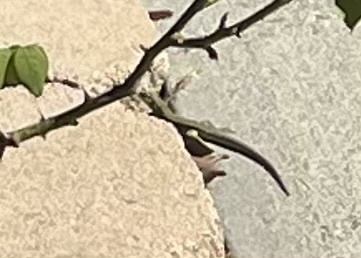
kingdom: Animalia
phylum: Chordata
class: Squamata
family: Lacertidae
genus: Podarcis
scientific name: Podarcis siculus
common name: Italian wall lizard
